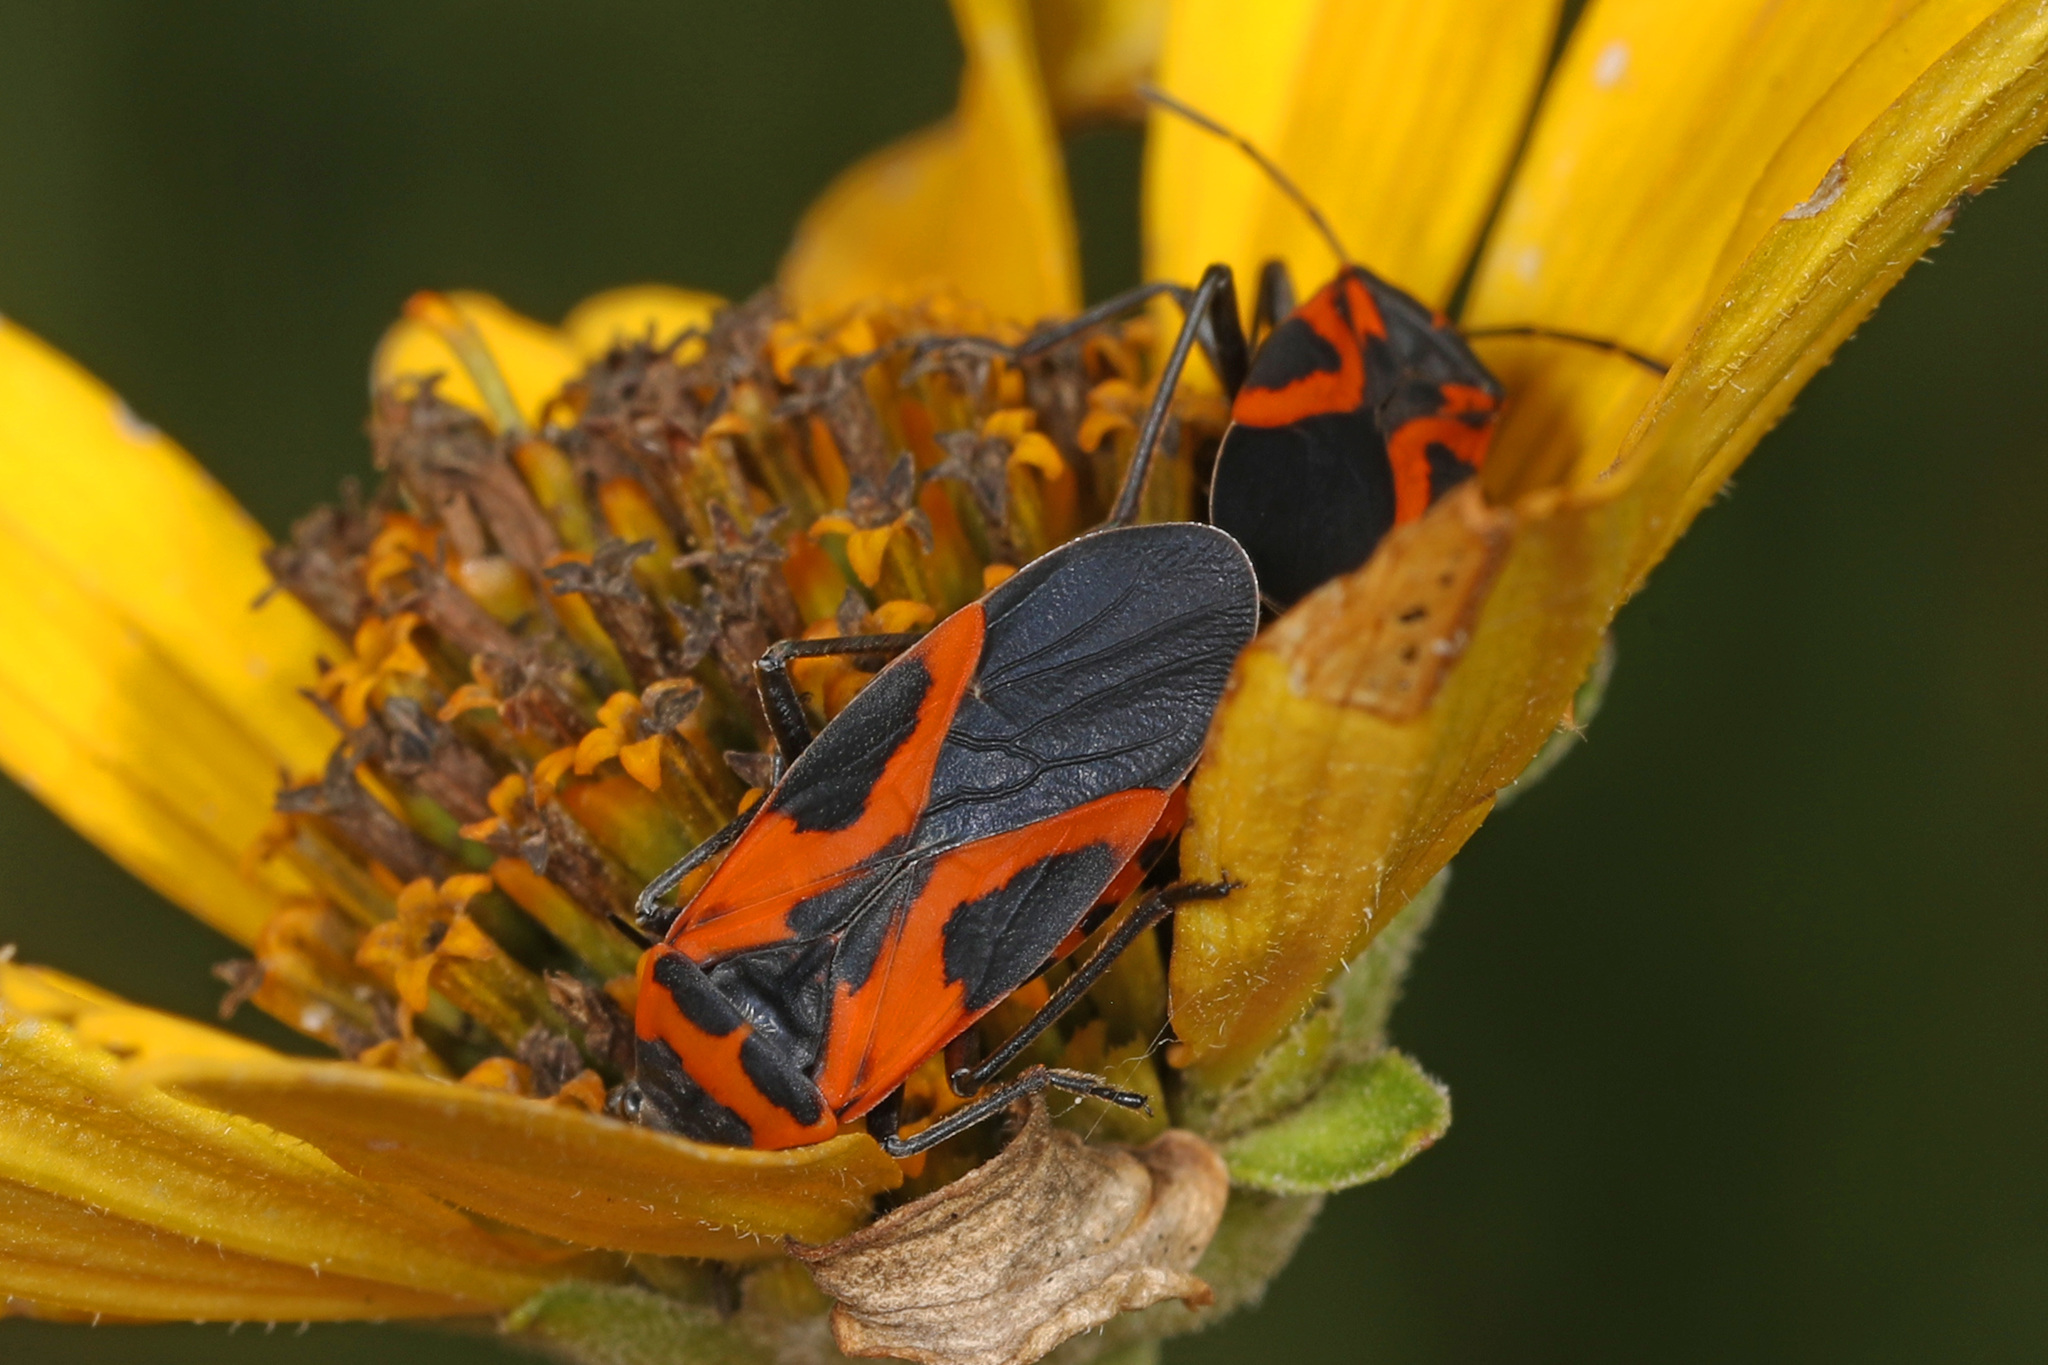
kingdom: Animalia
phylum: Arthropoda
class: Insecta
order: Hemiptera
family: Lygaeidae
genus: Lygaeus
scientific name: Lygaeus turcicus
